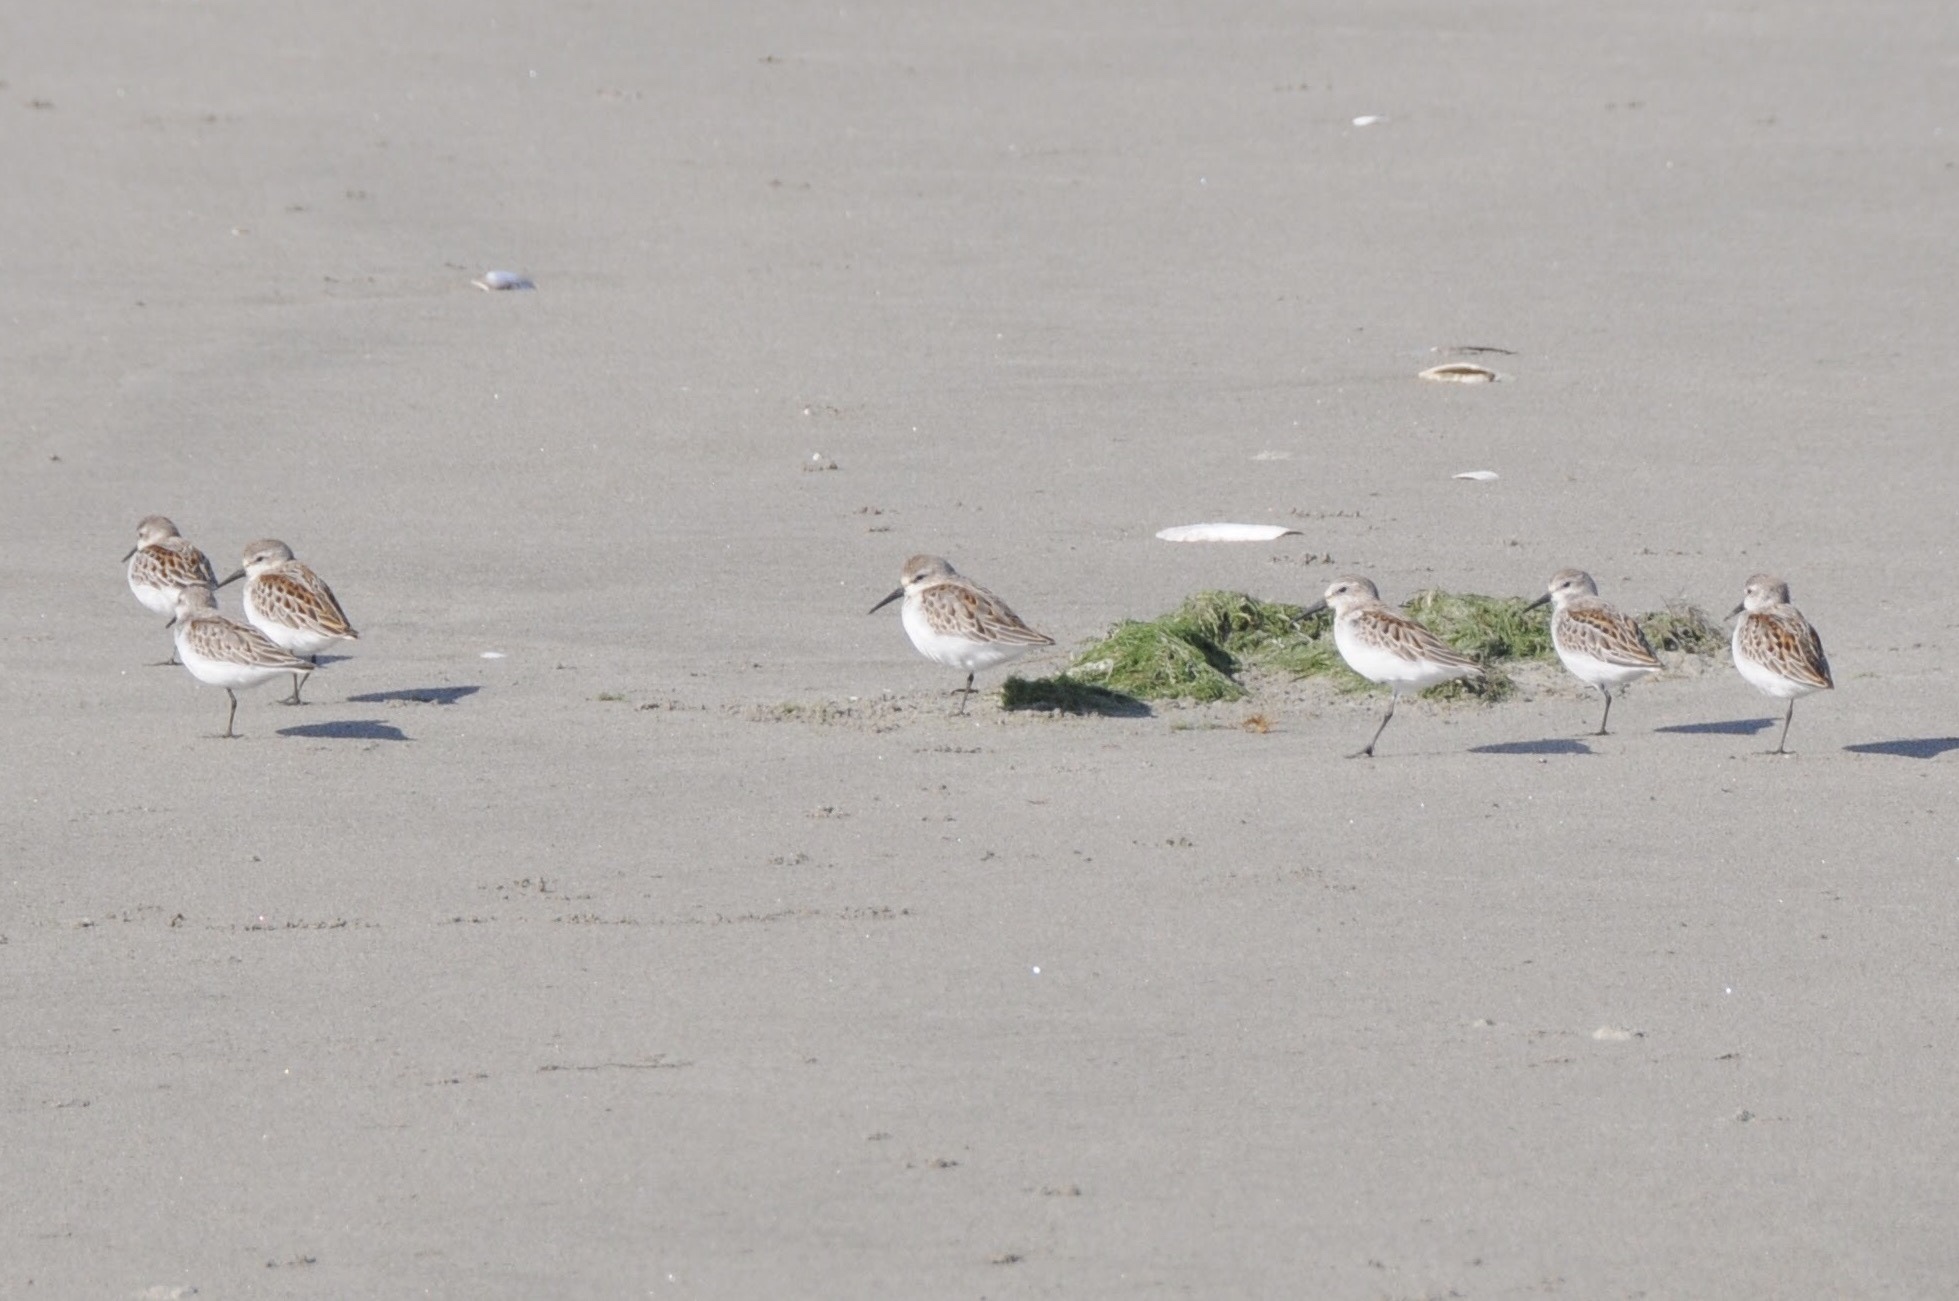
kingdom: Animalia
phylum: Chordata
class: Aves
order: Charadriiformes
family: Scolopacidae
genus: Calidris
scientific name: Calidris mauri
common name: Western sandpiper
